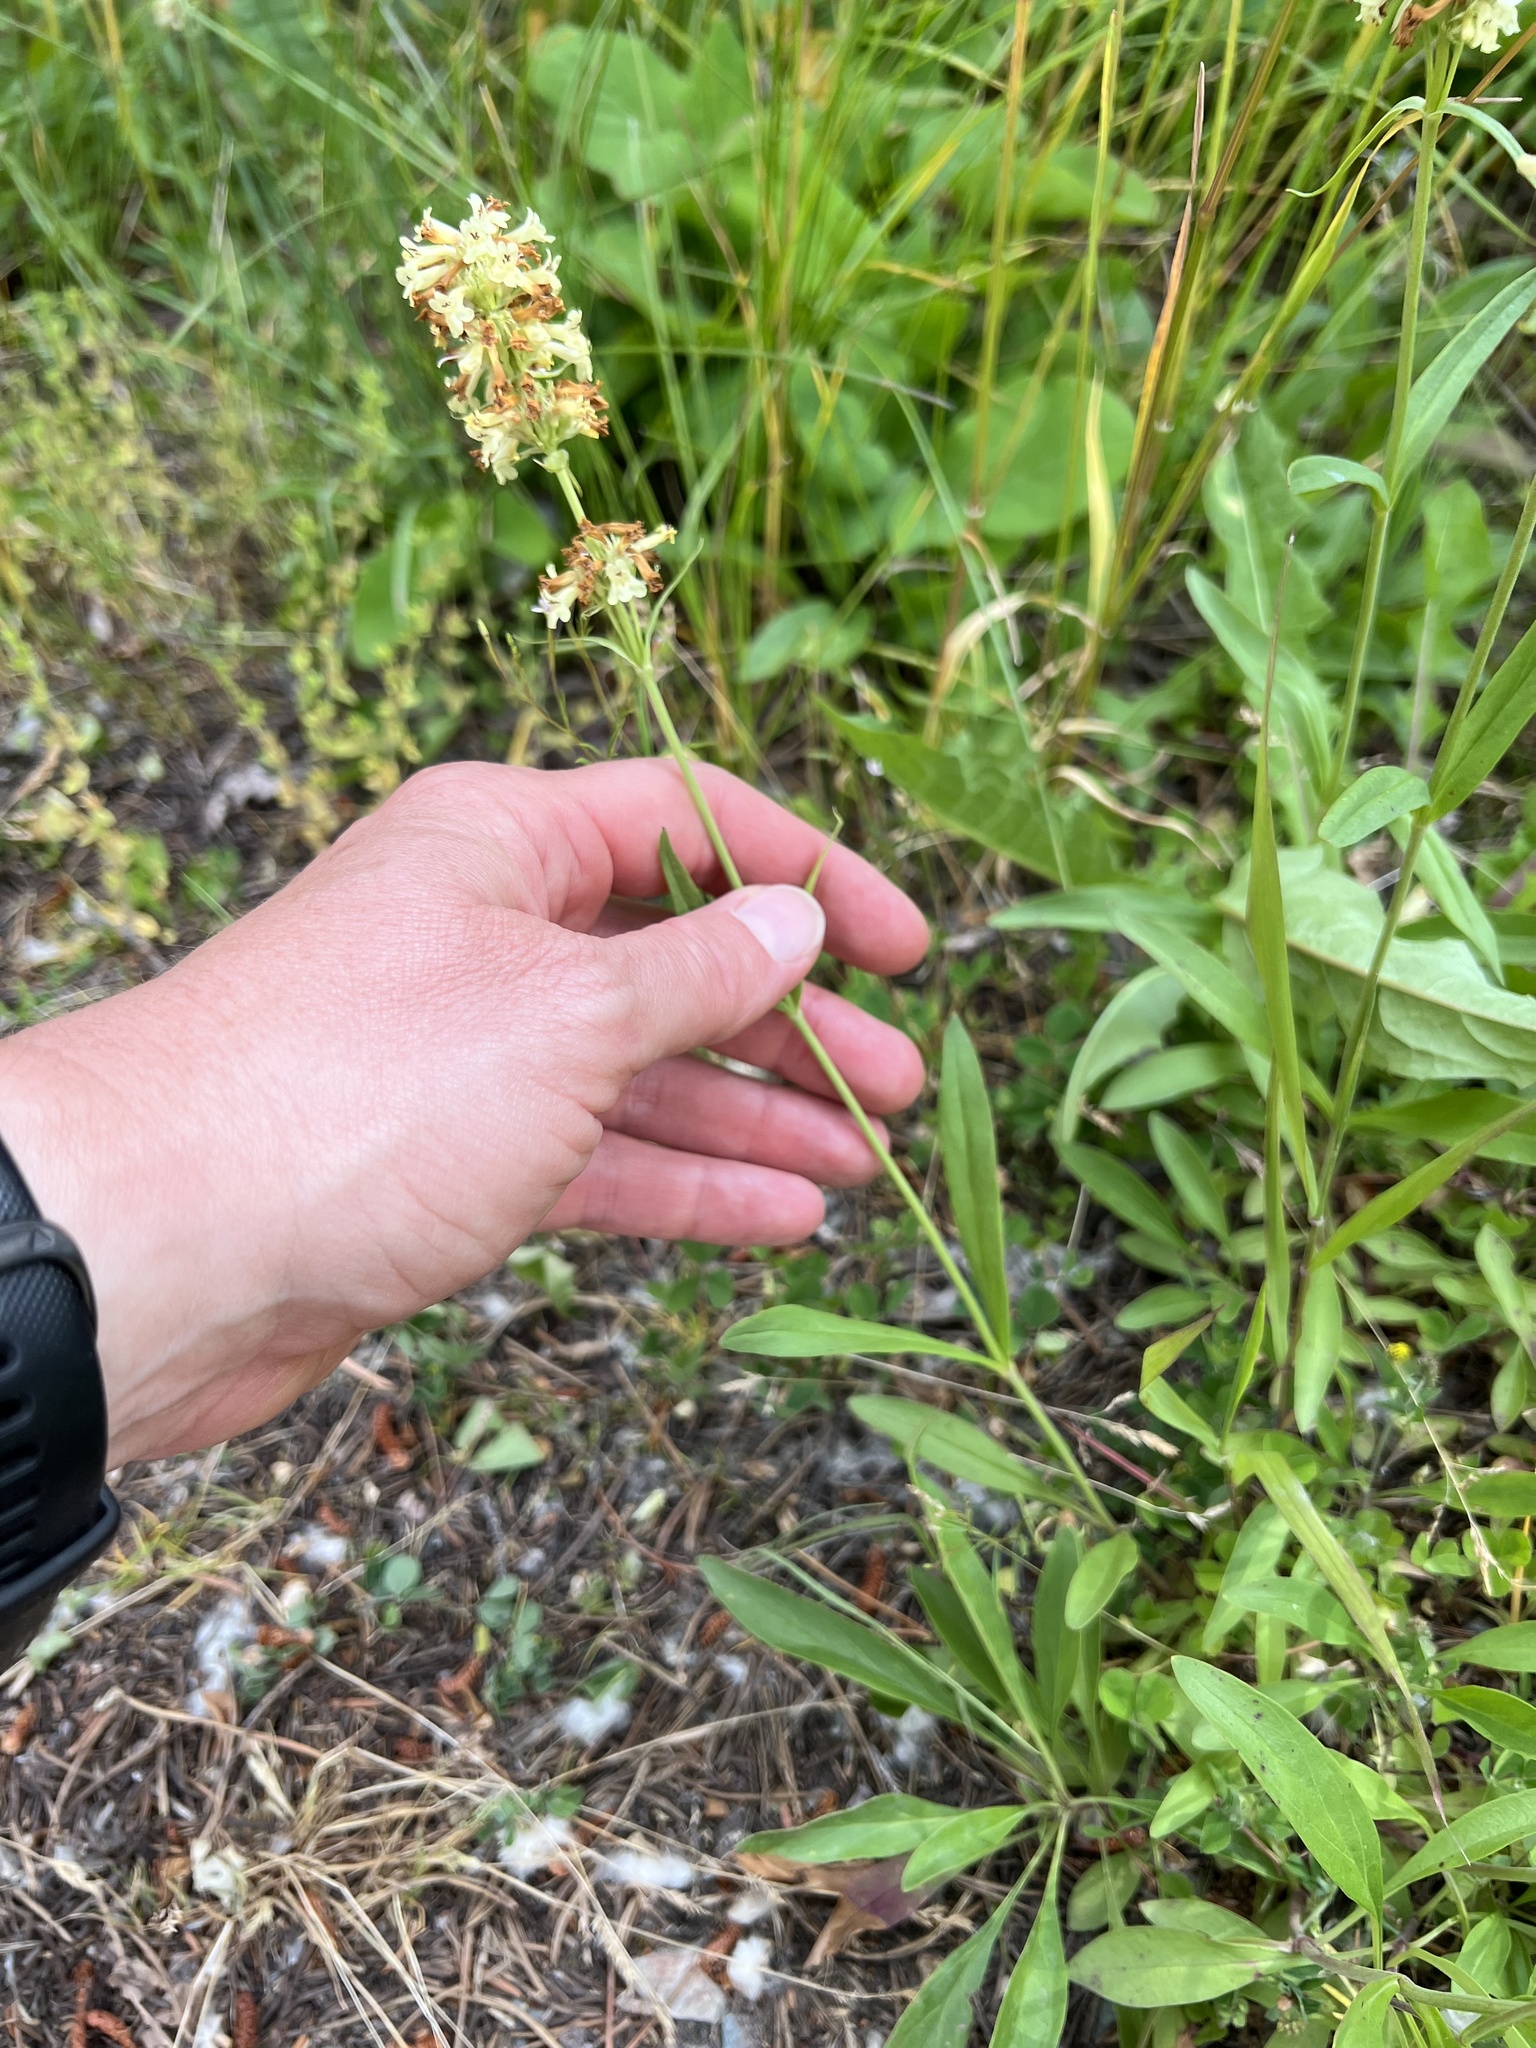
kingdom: Plantae
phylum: Tracheophyta
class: Magnoliopsida
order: Lamiales
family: Plantaginaceae
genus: Penstemon
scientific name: Penstemon confertus
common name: Lesser yellow beardtongue
